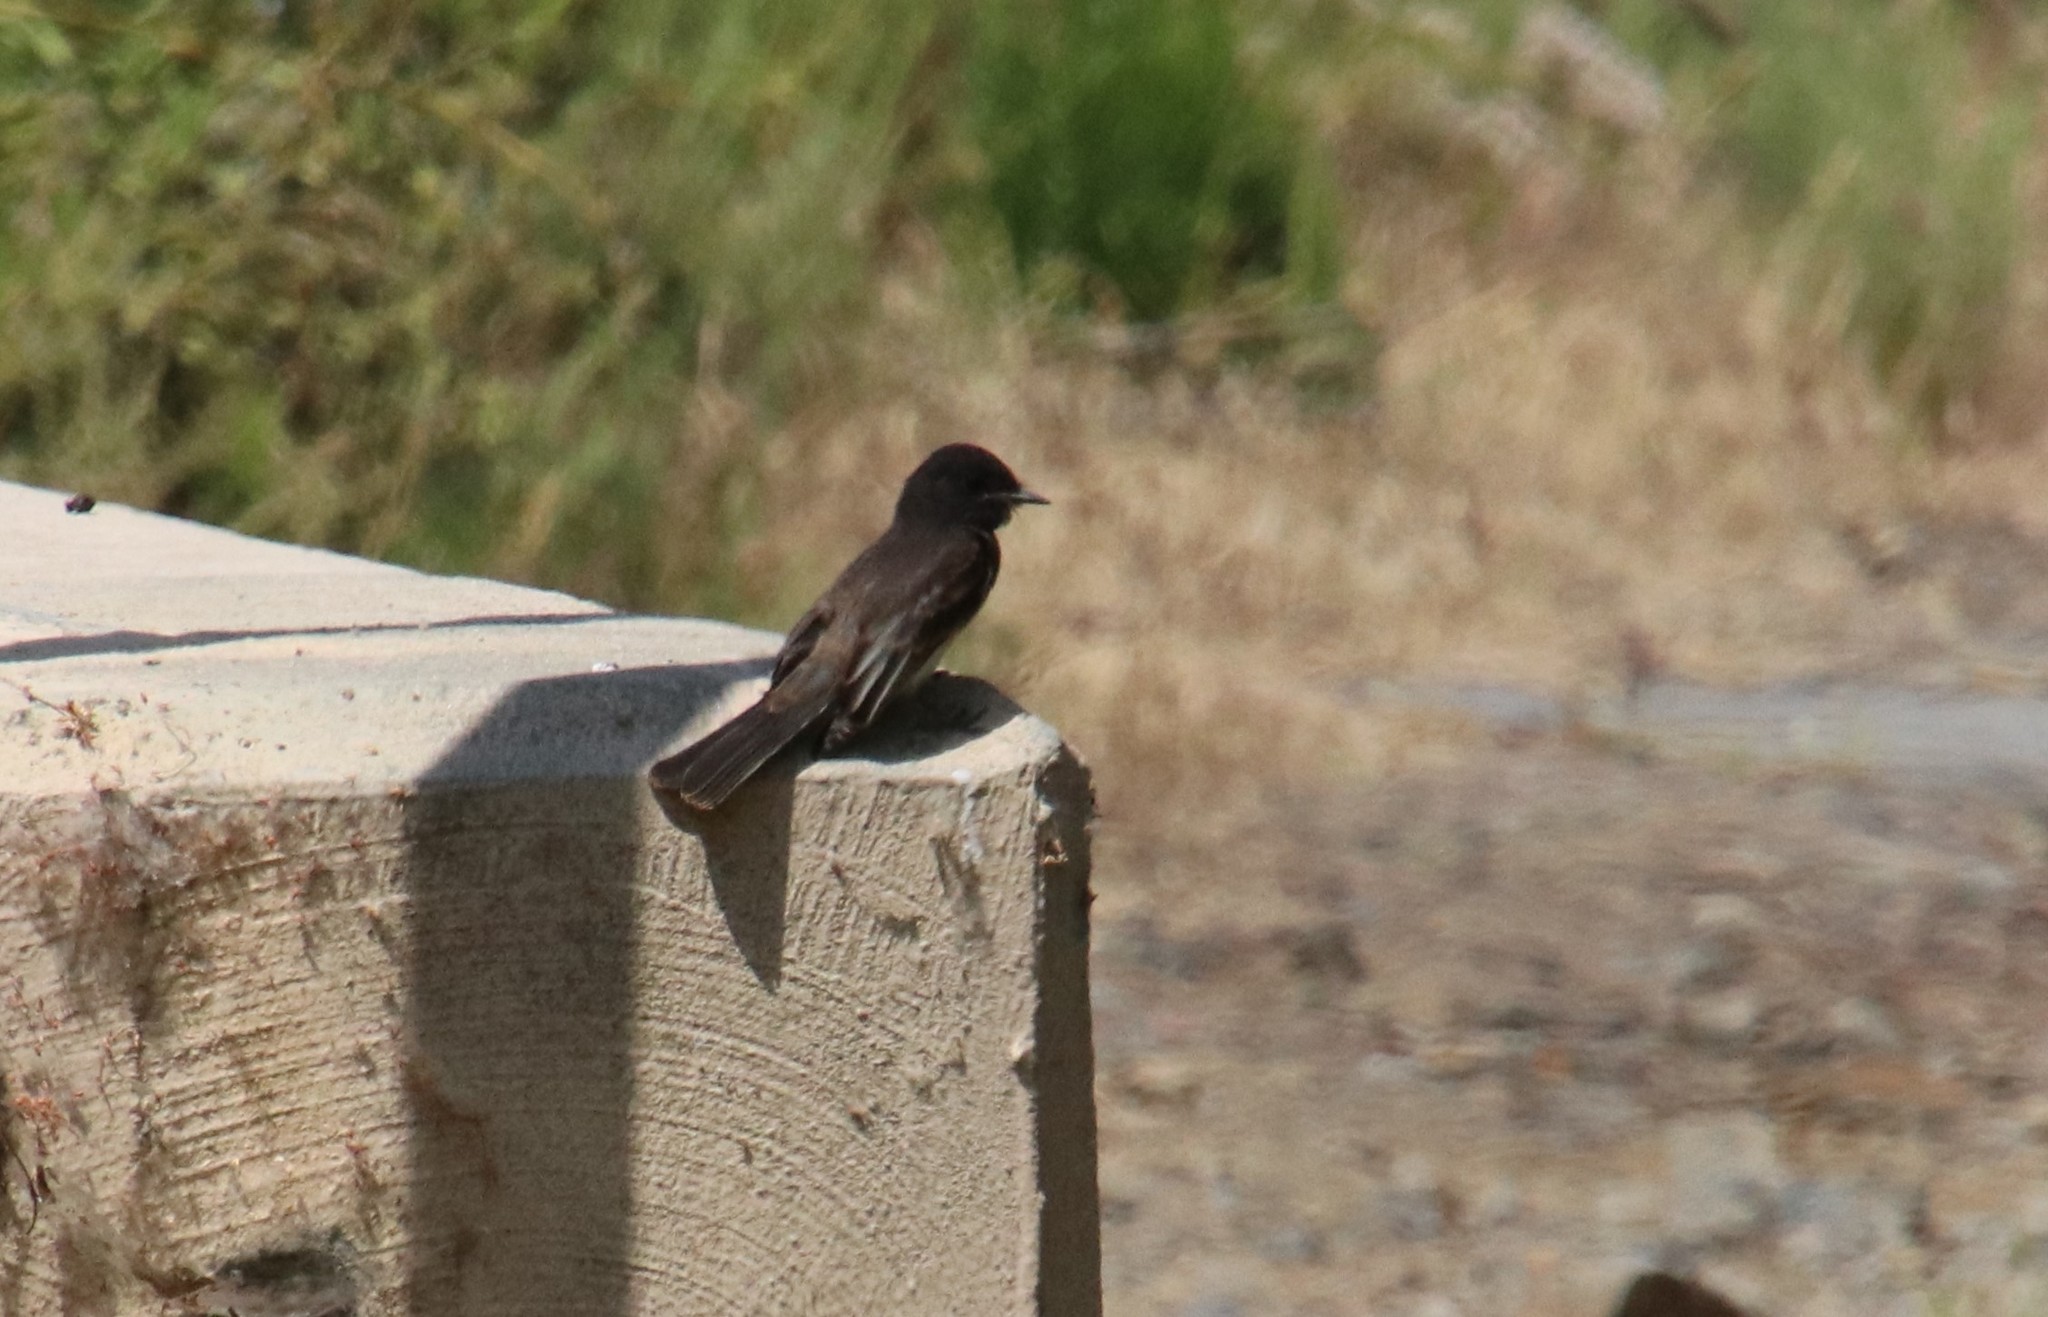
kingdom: Animalia
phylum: Chordata
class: Aves
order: Passeriformes
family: Tyrannidae
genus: Sayornis
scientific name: Sayornis nigricans
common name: Black phoebe
